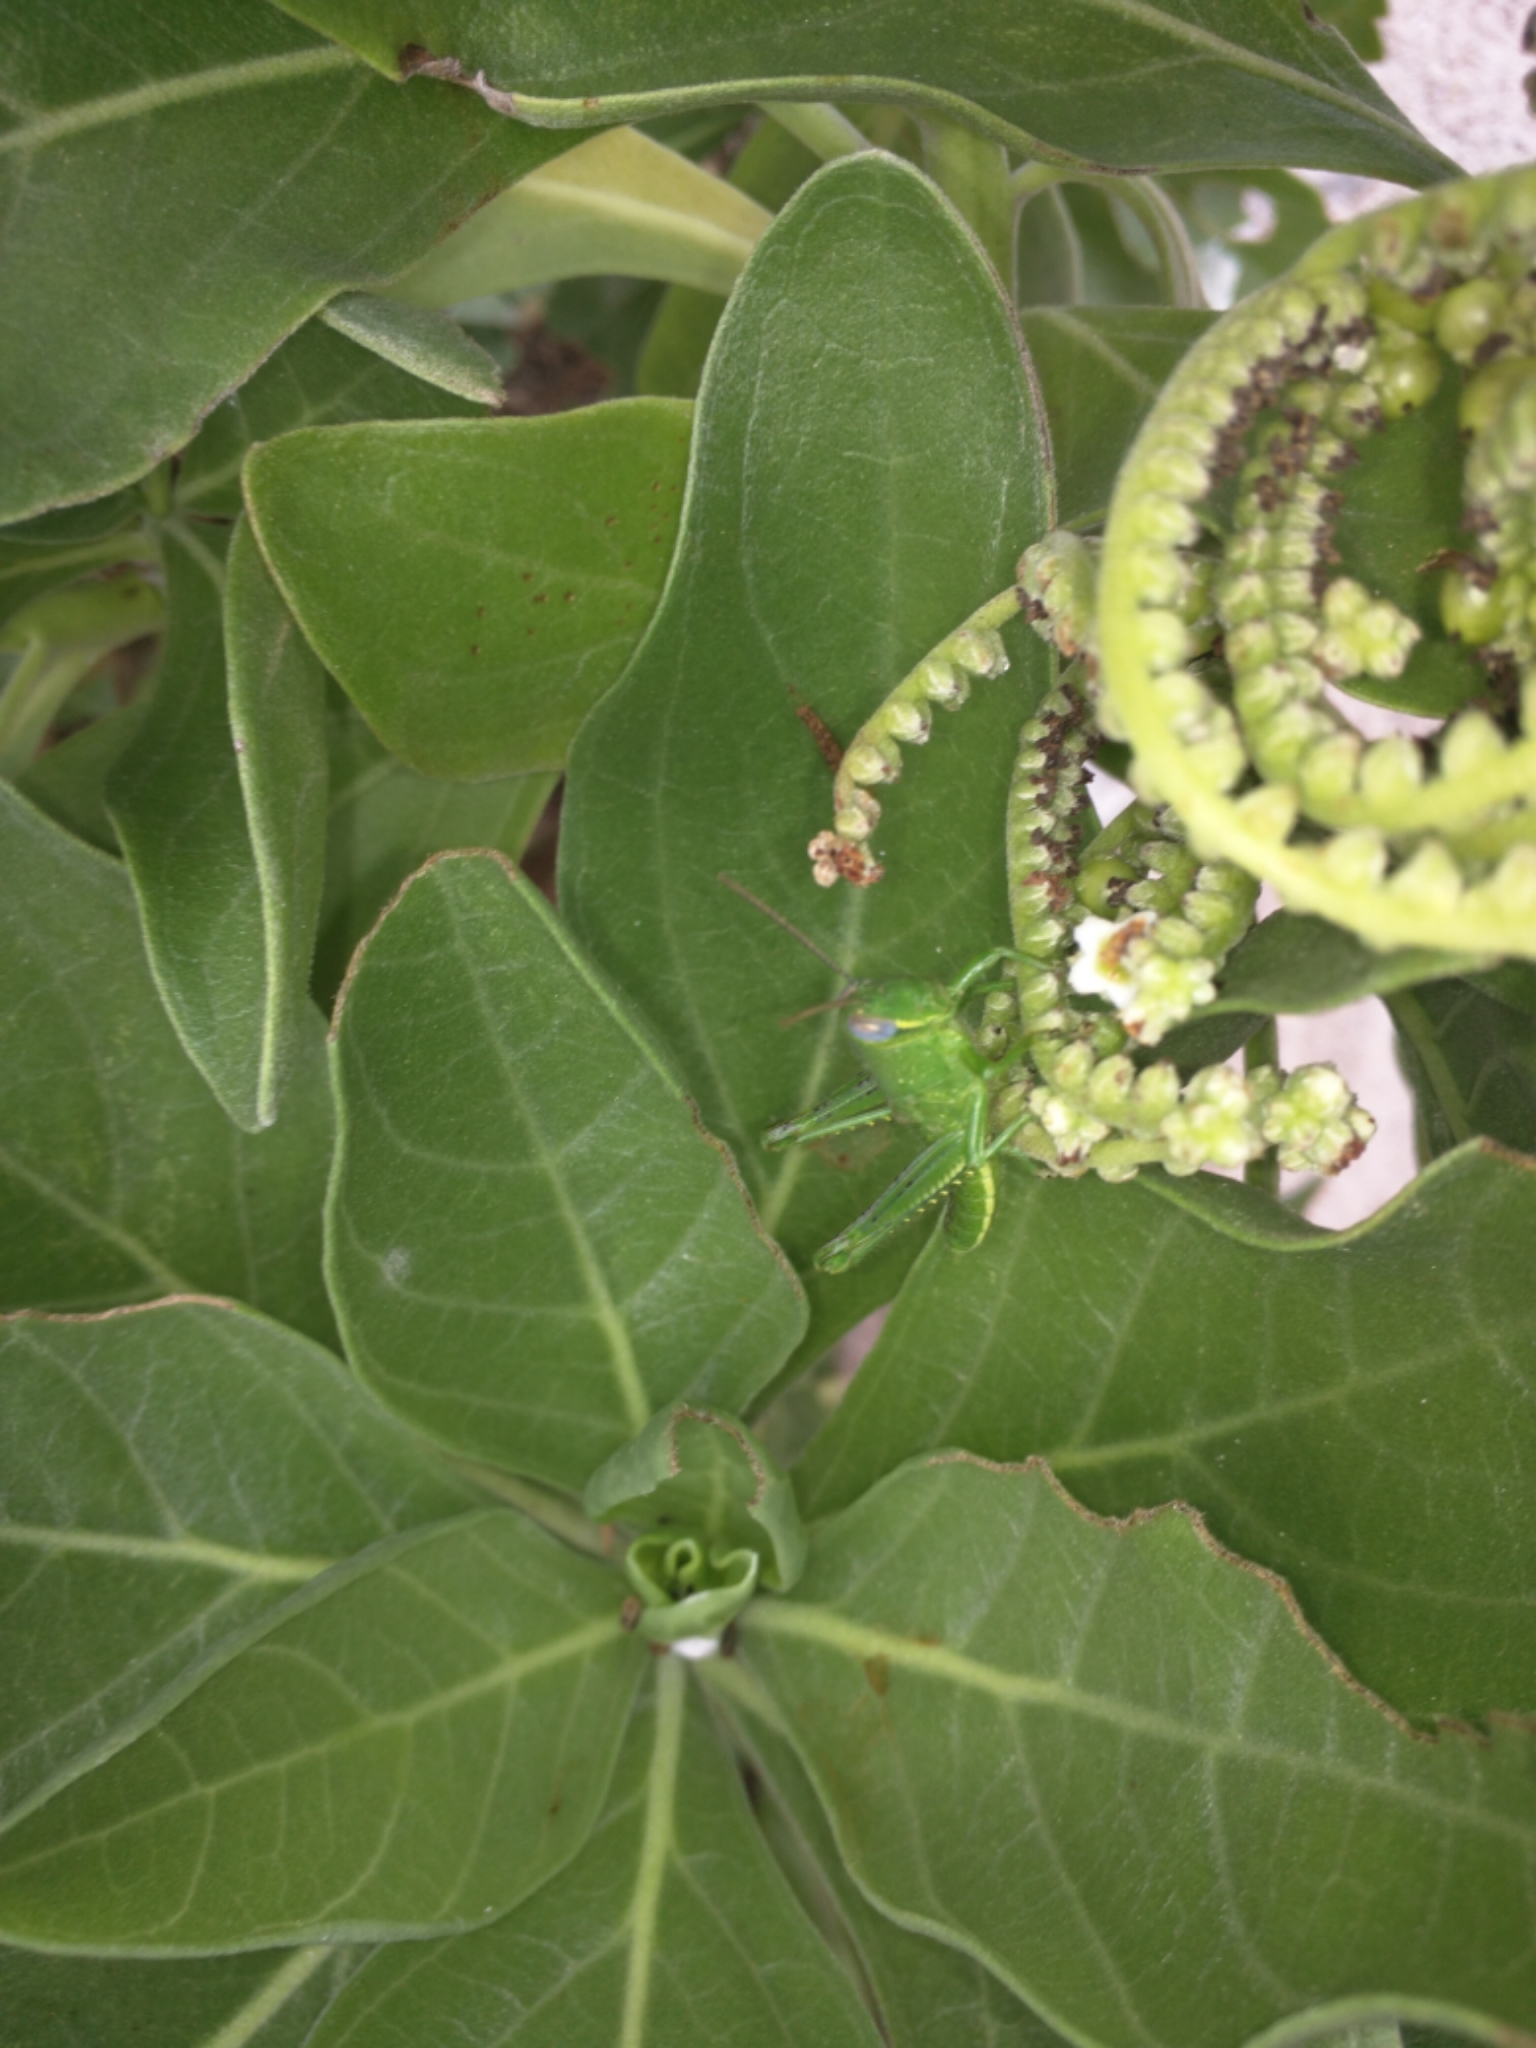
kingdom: Animalia
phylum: Arthropoda
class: Insecta
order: Orthoptera
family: Acrididae
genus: Valanga
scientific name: Valanga irregularis
